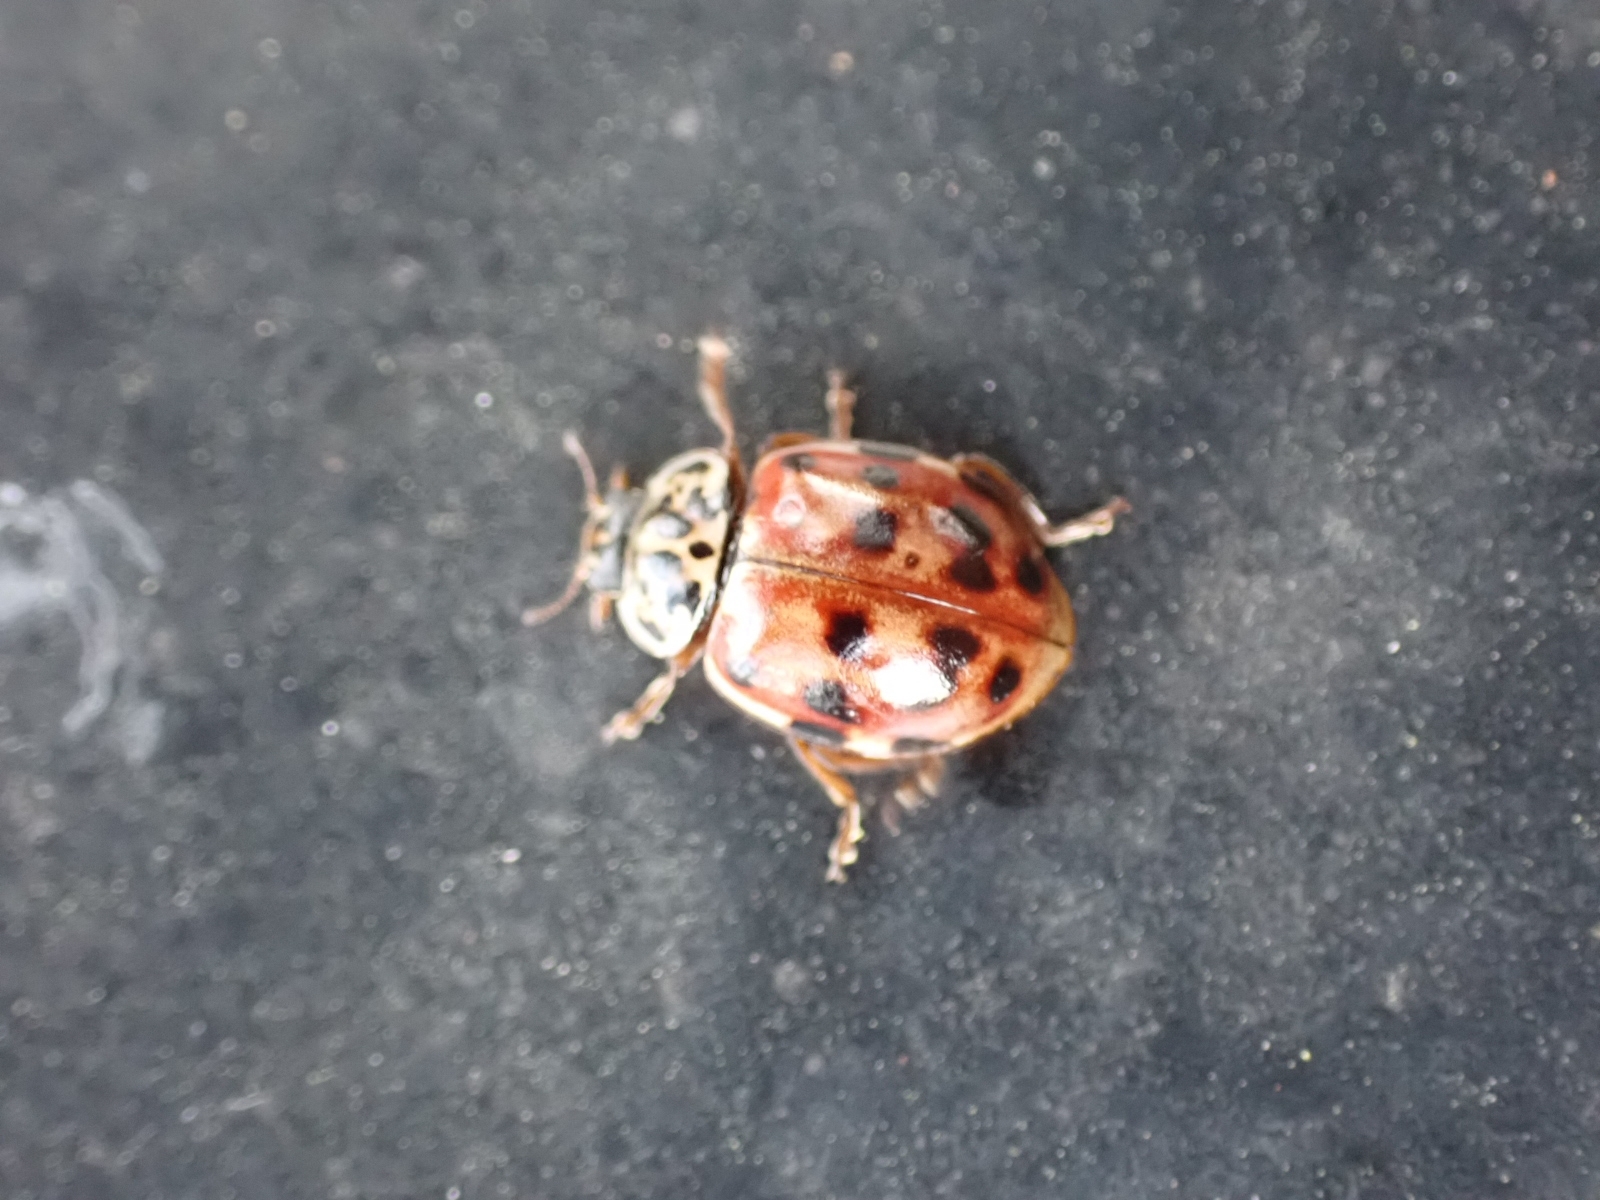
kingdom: Animalia
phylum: Arthropoda
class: Insecta
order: Coleoptera
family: Coccinellidae
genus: Harmonia
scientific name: Harmonia quadripunctata
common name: Cream-streaked ladybird
